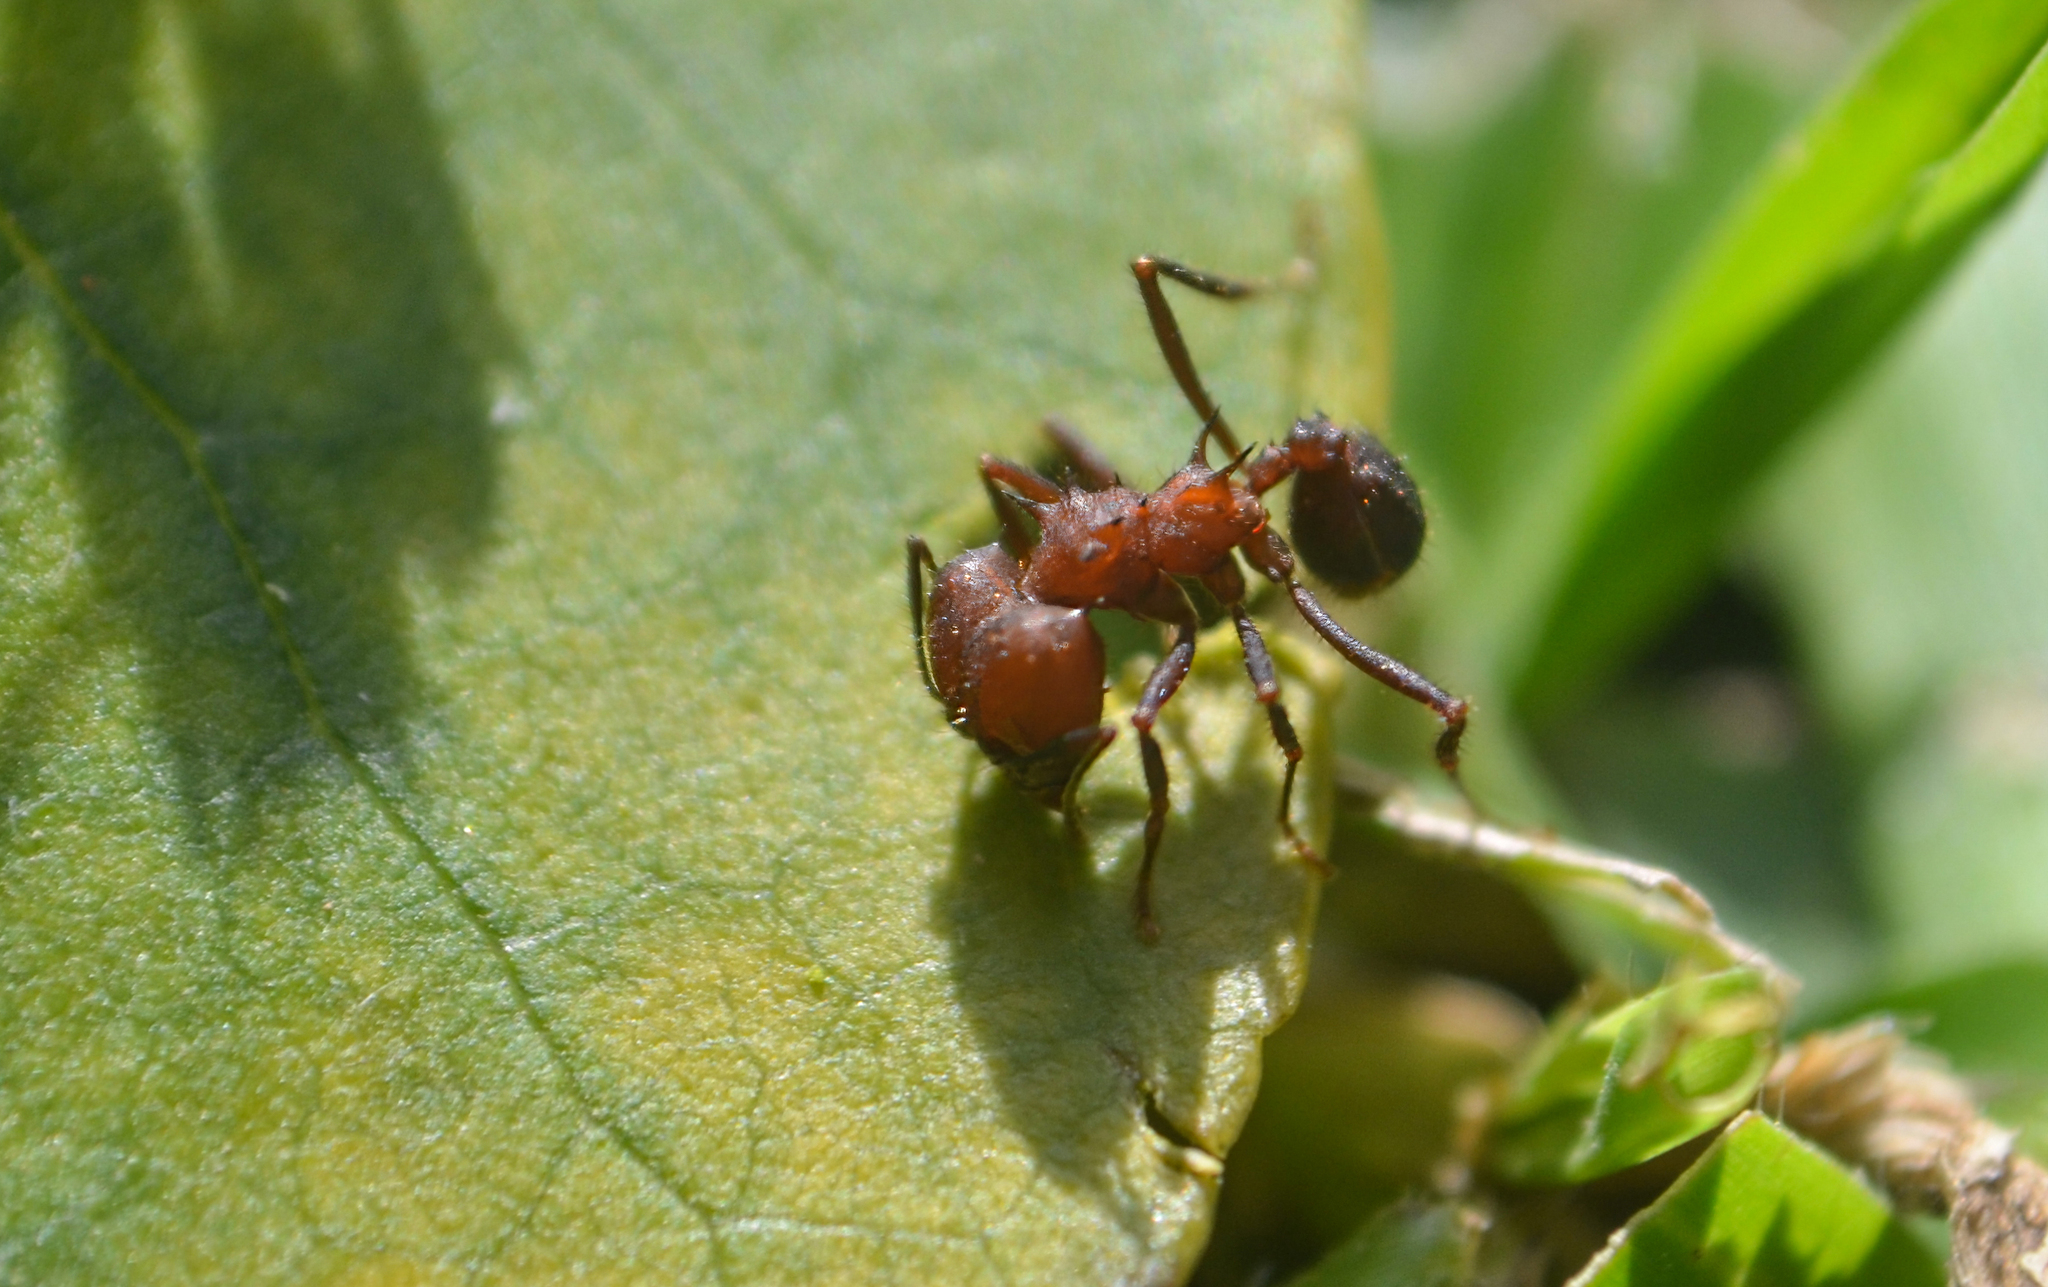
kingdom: Animalia
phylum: Arthropoda
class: Insecta
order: Hymenoptera
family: Formicidae
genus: Acromyrmex
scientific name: Acromyrmex
